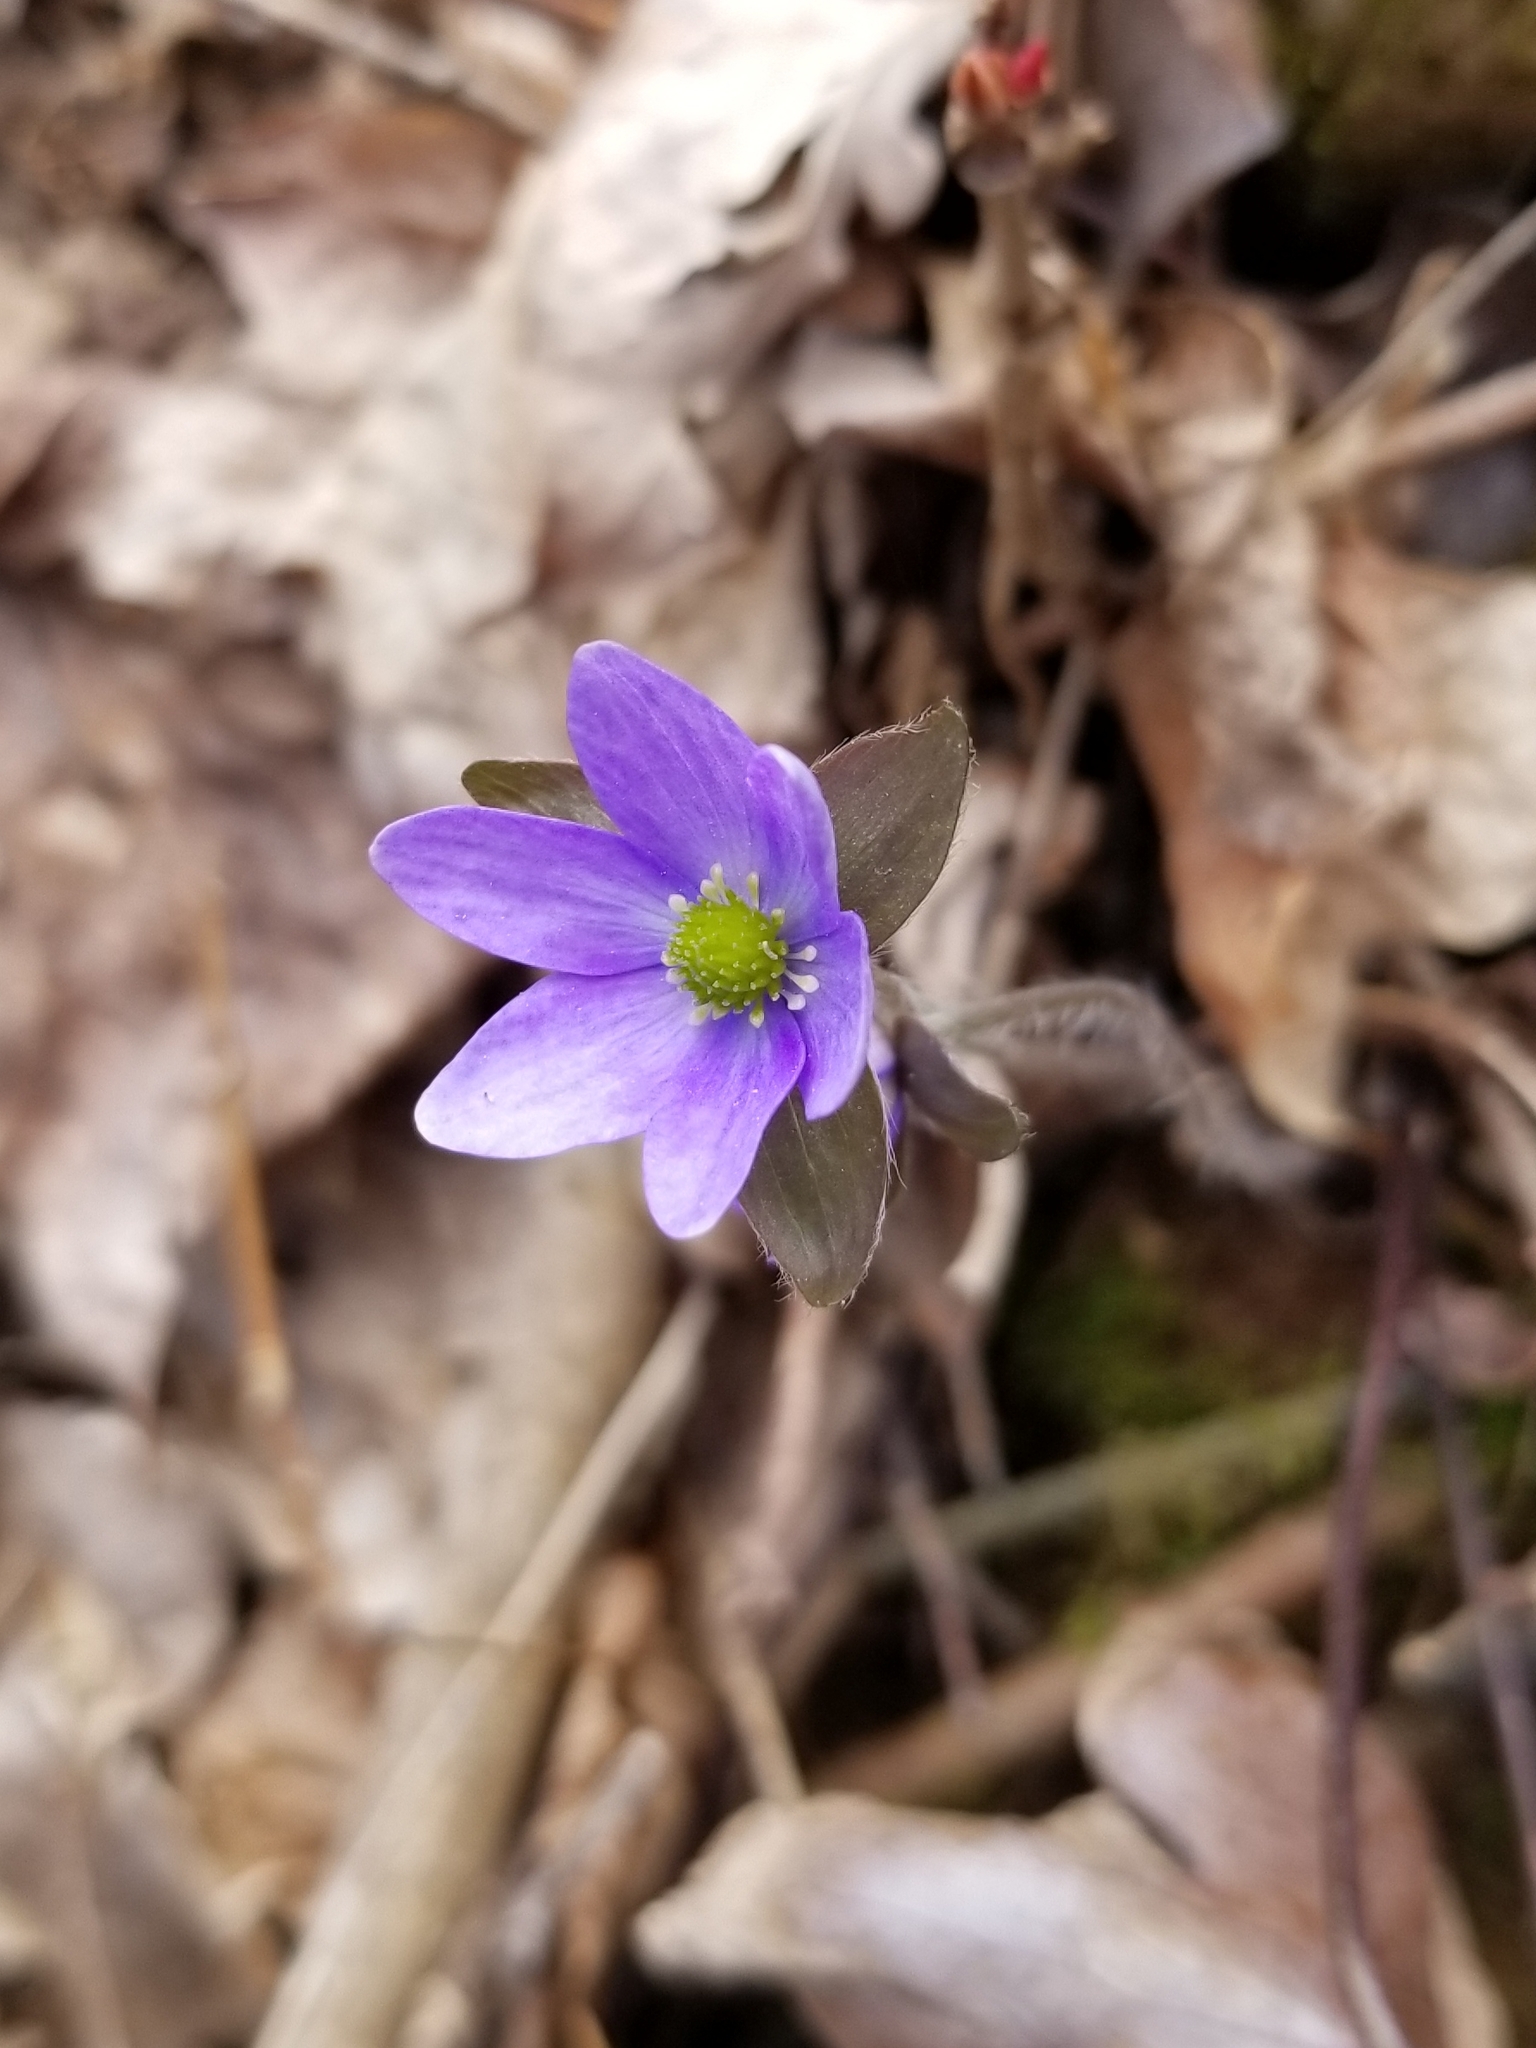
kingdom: Plantae
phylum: Tracheophyta
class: Magnoliopsida
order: Ranunculales
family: Ranunculaceae
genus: Hepatica
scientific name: Hepatica acutiloba
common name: Sharp-lobed hepatica
